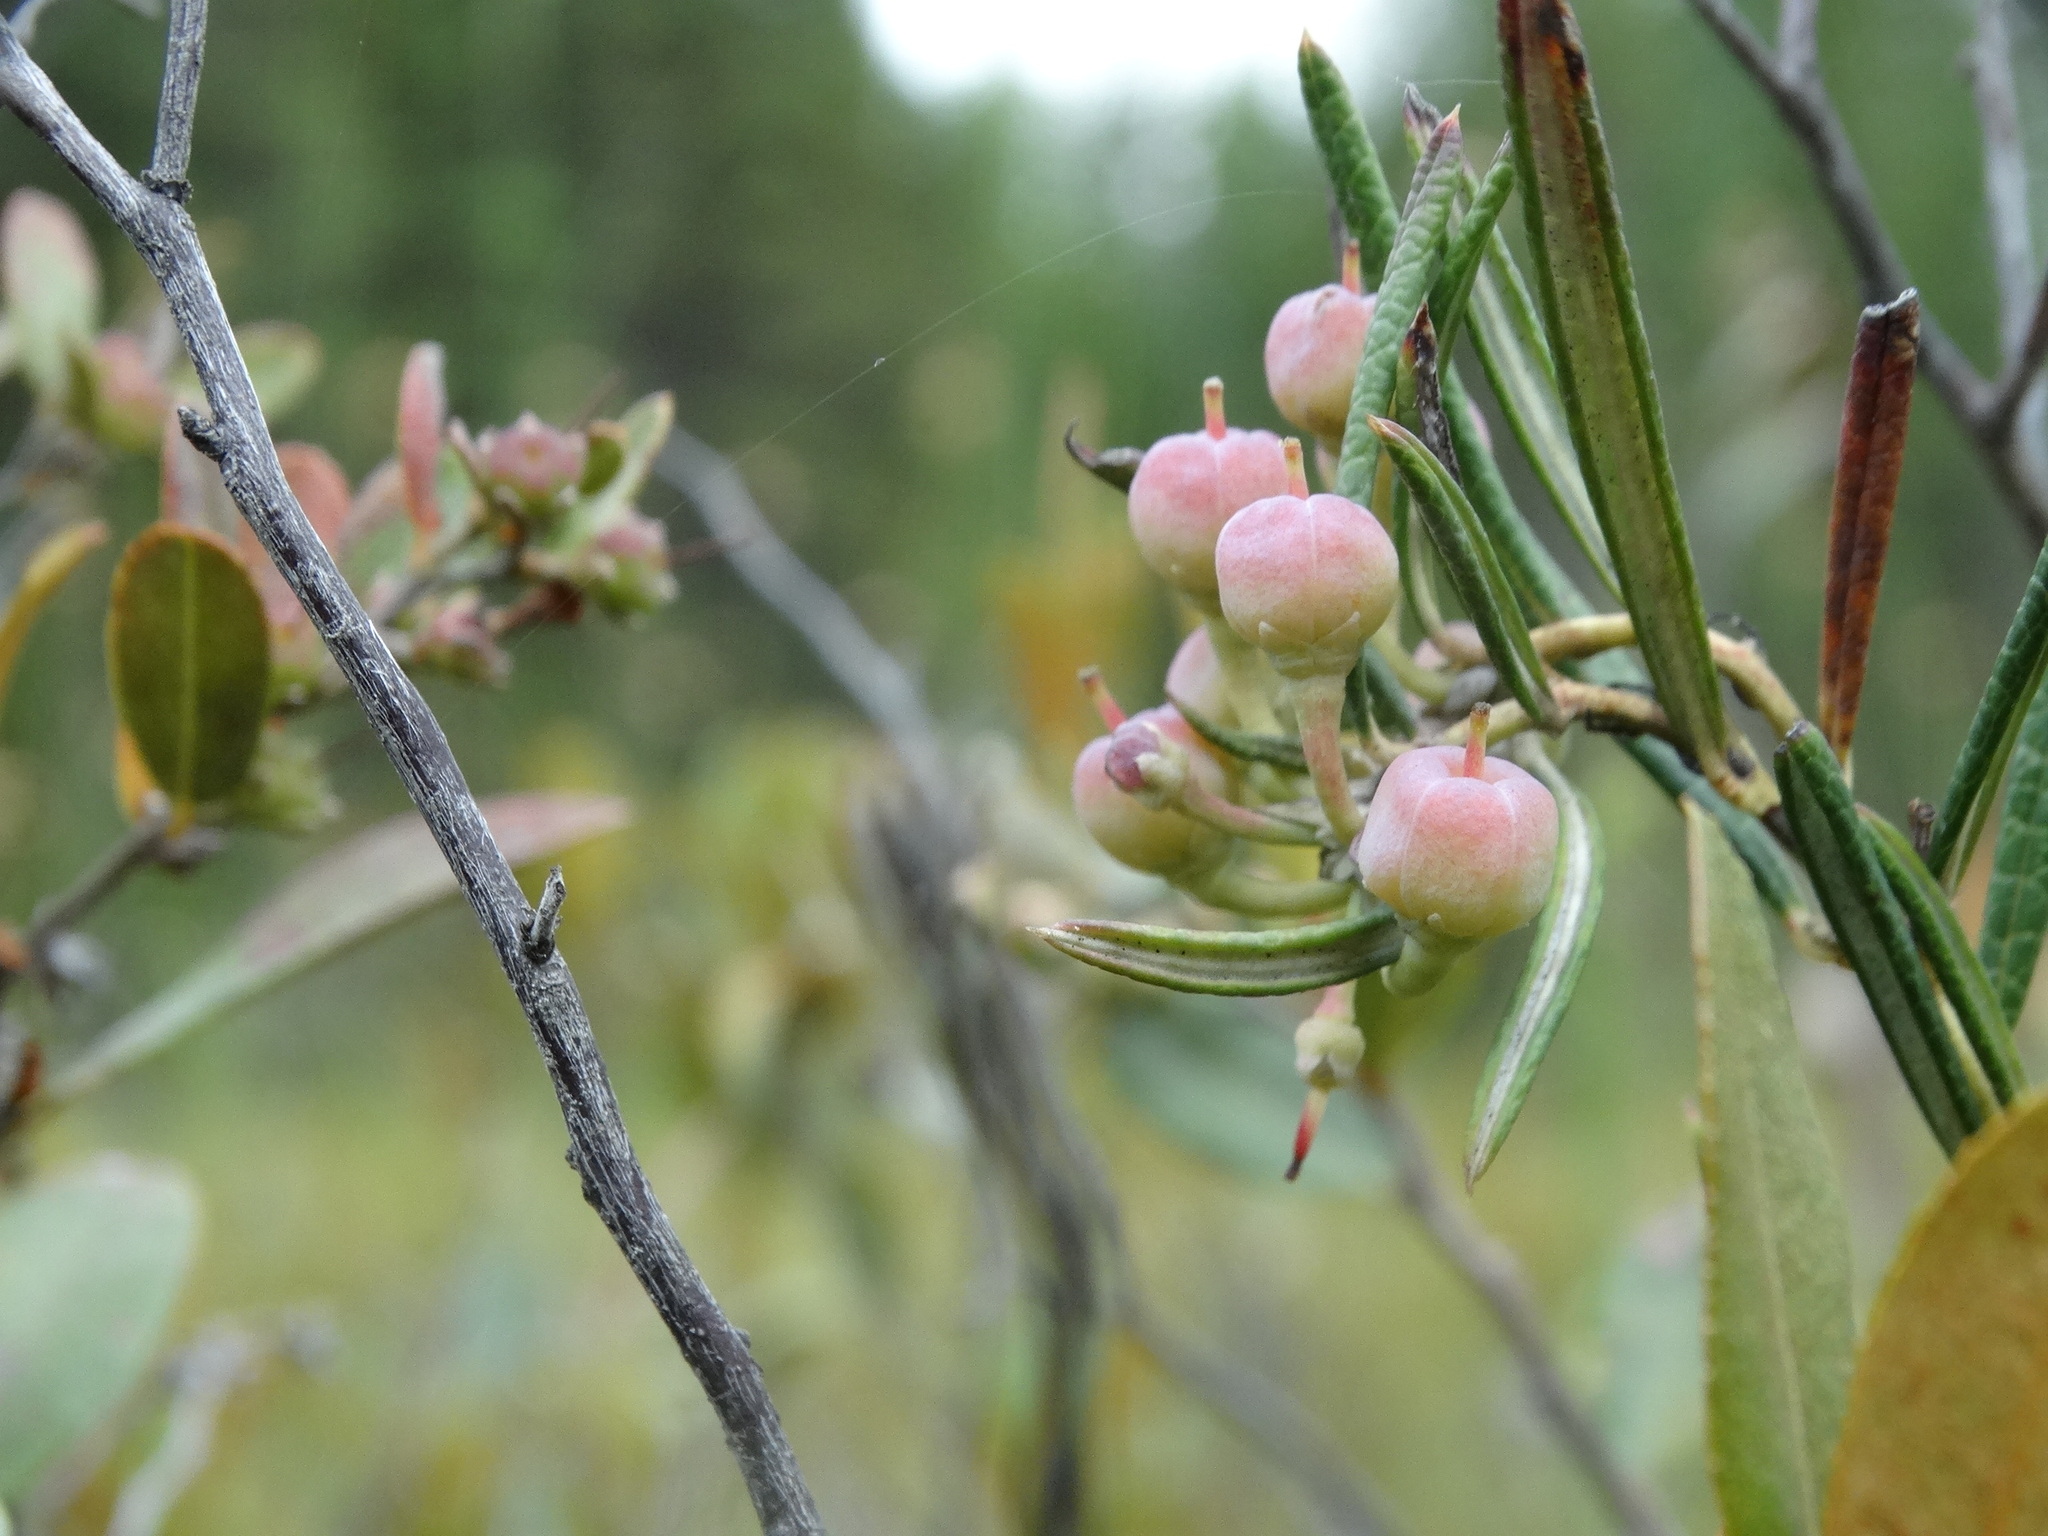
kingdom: Plantae
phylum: Tracheophyta
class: Magnoliopsida
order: Ericales
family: Ericaceae
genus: Andromeda
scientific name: Andromeda polifolia
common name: Bog-rosemary
